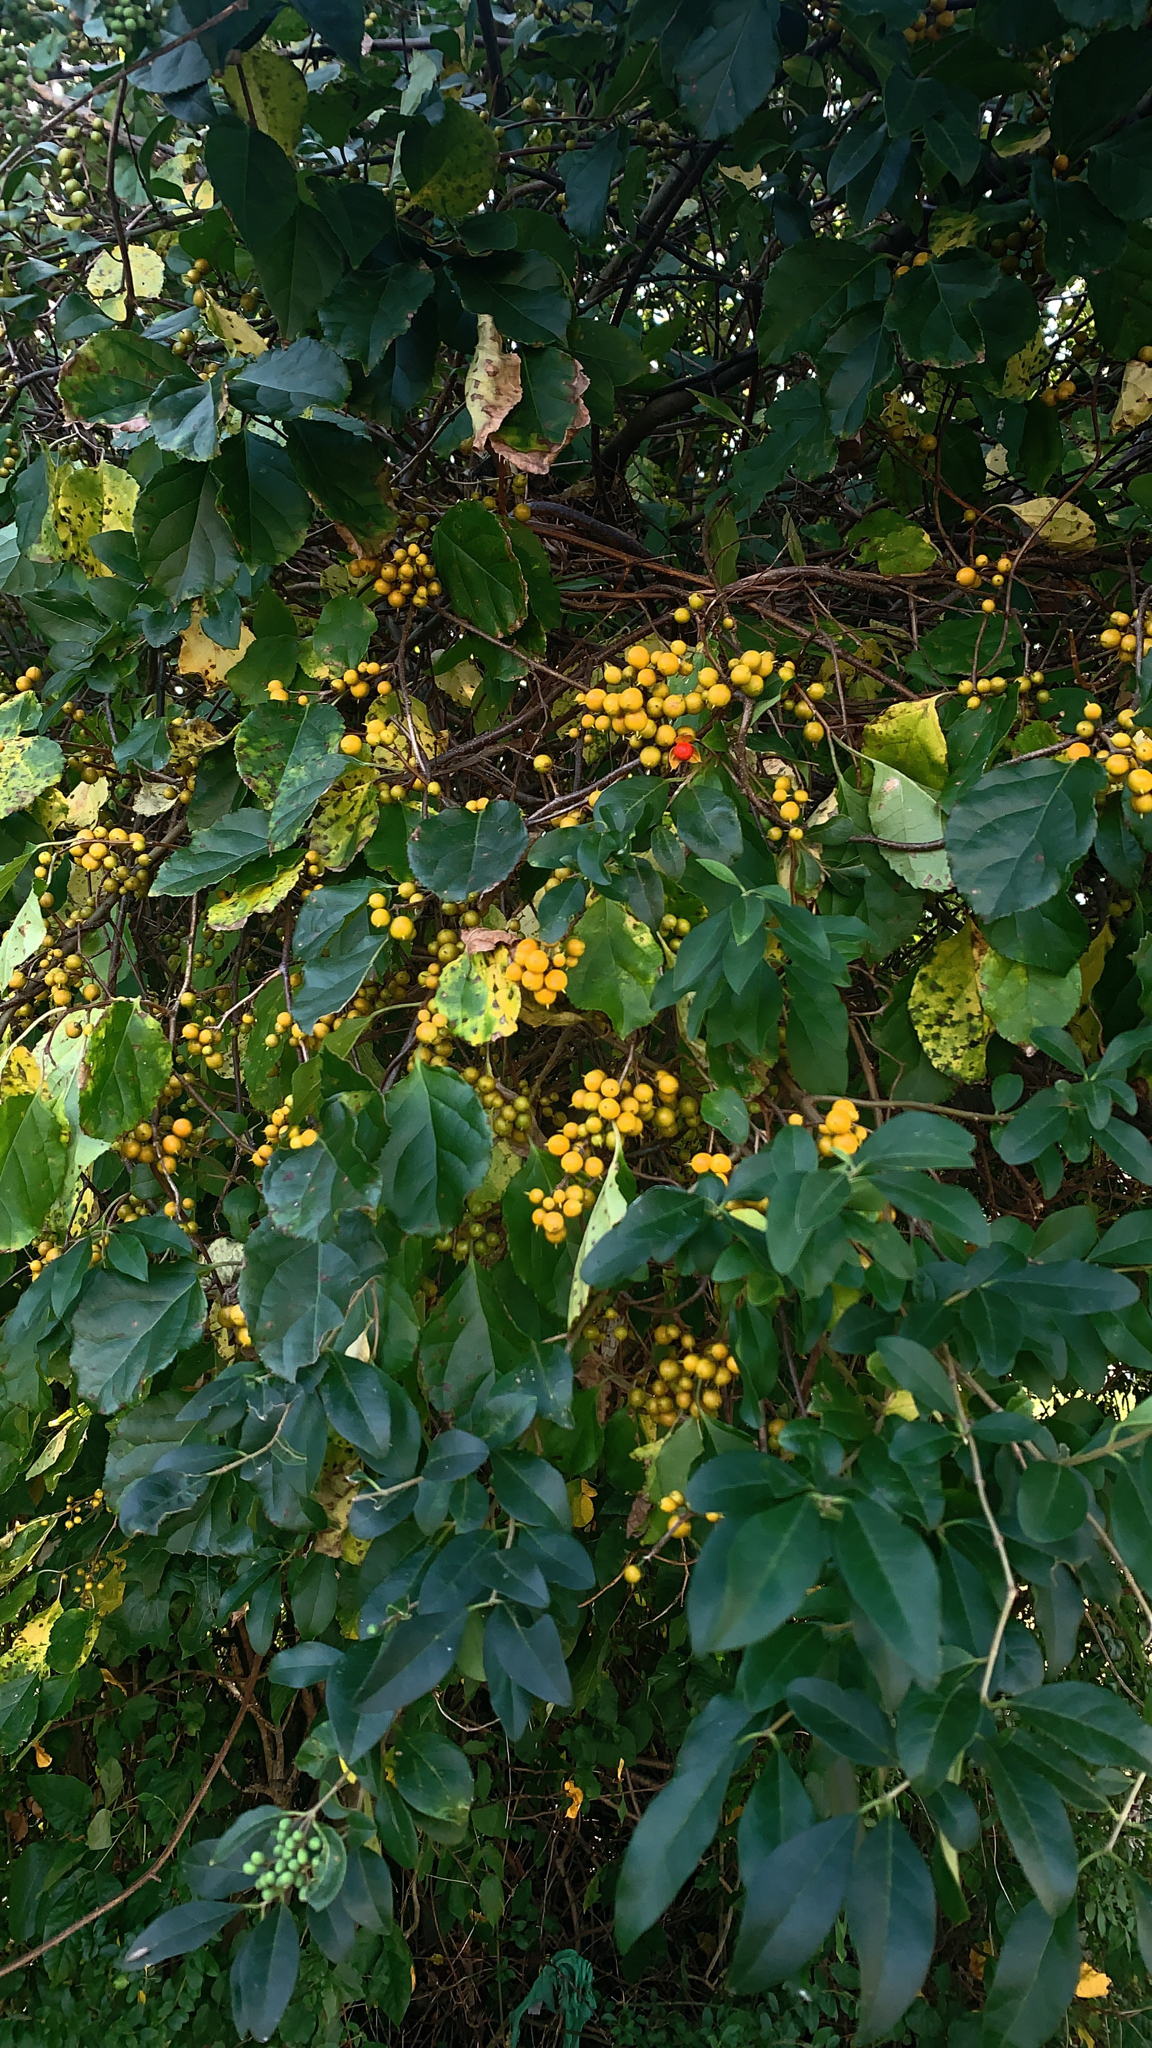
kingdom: Plantae
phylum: Tracheophyta
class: Magnoliopsida
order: Celastrales
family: Celastraceae
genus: Celastrus
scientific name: Celastrus orbiculatus
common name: Oriental bittersweet
